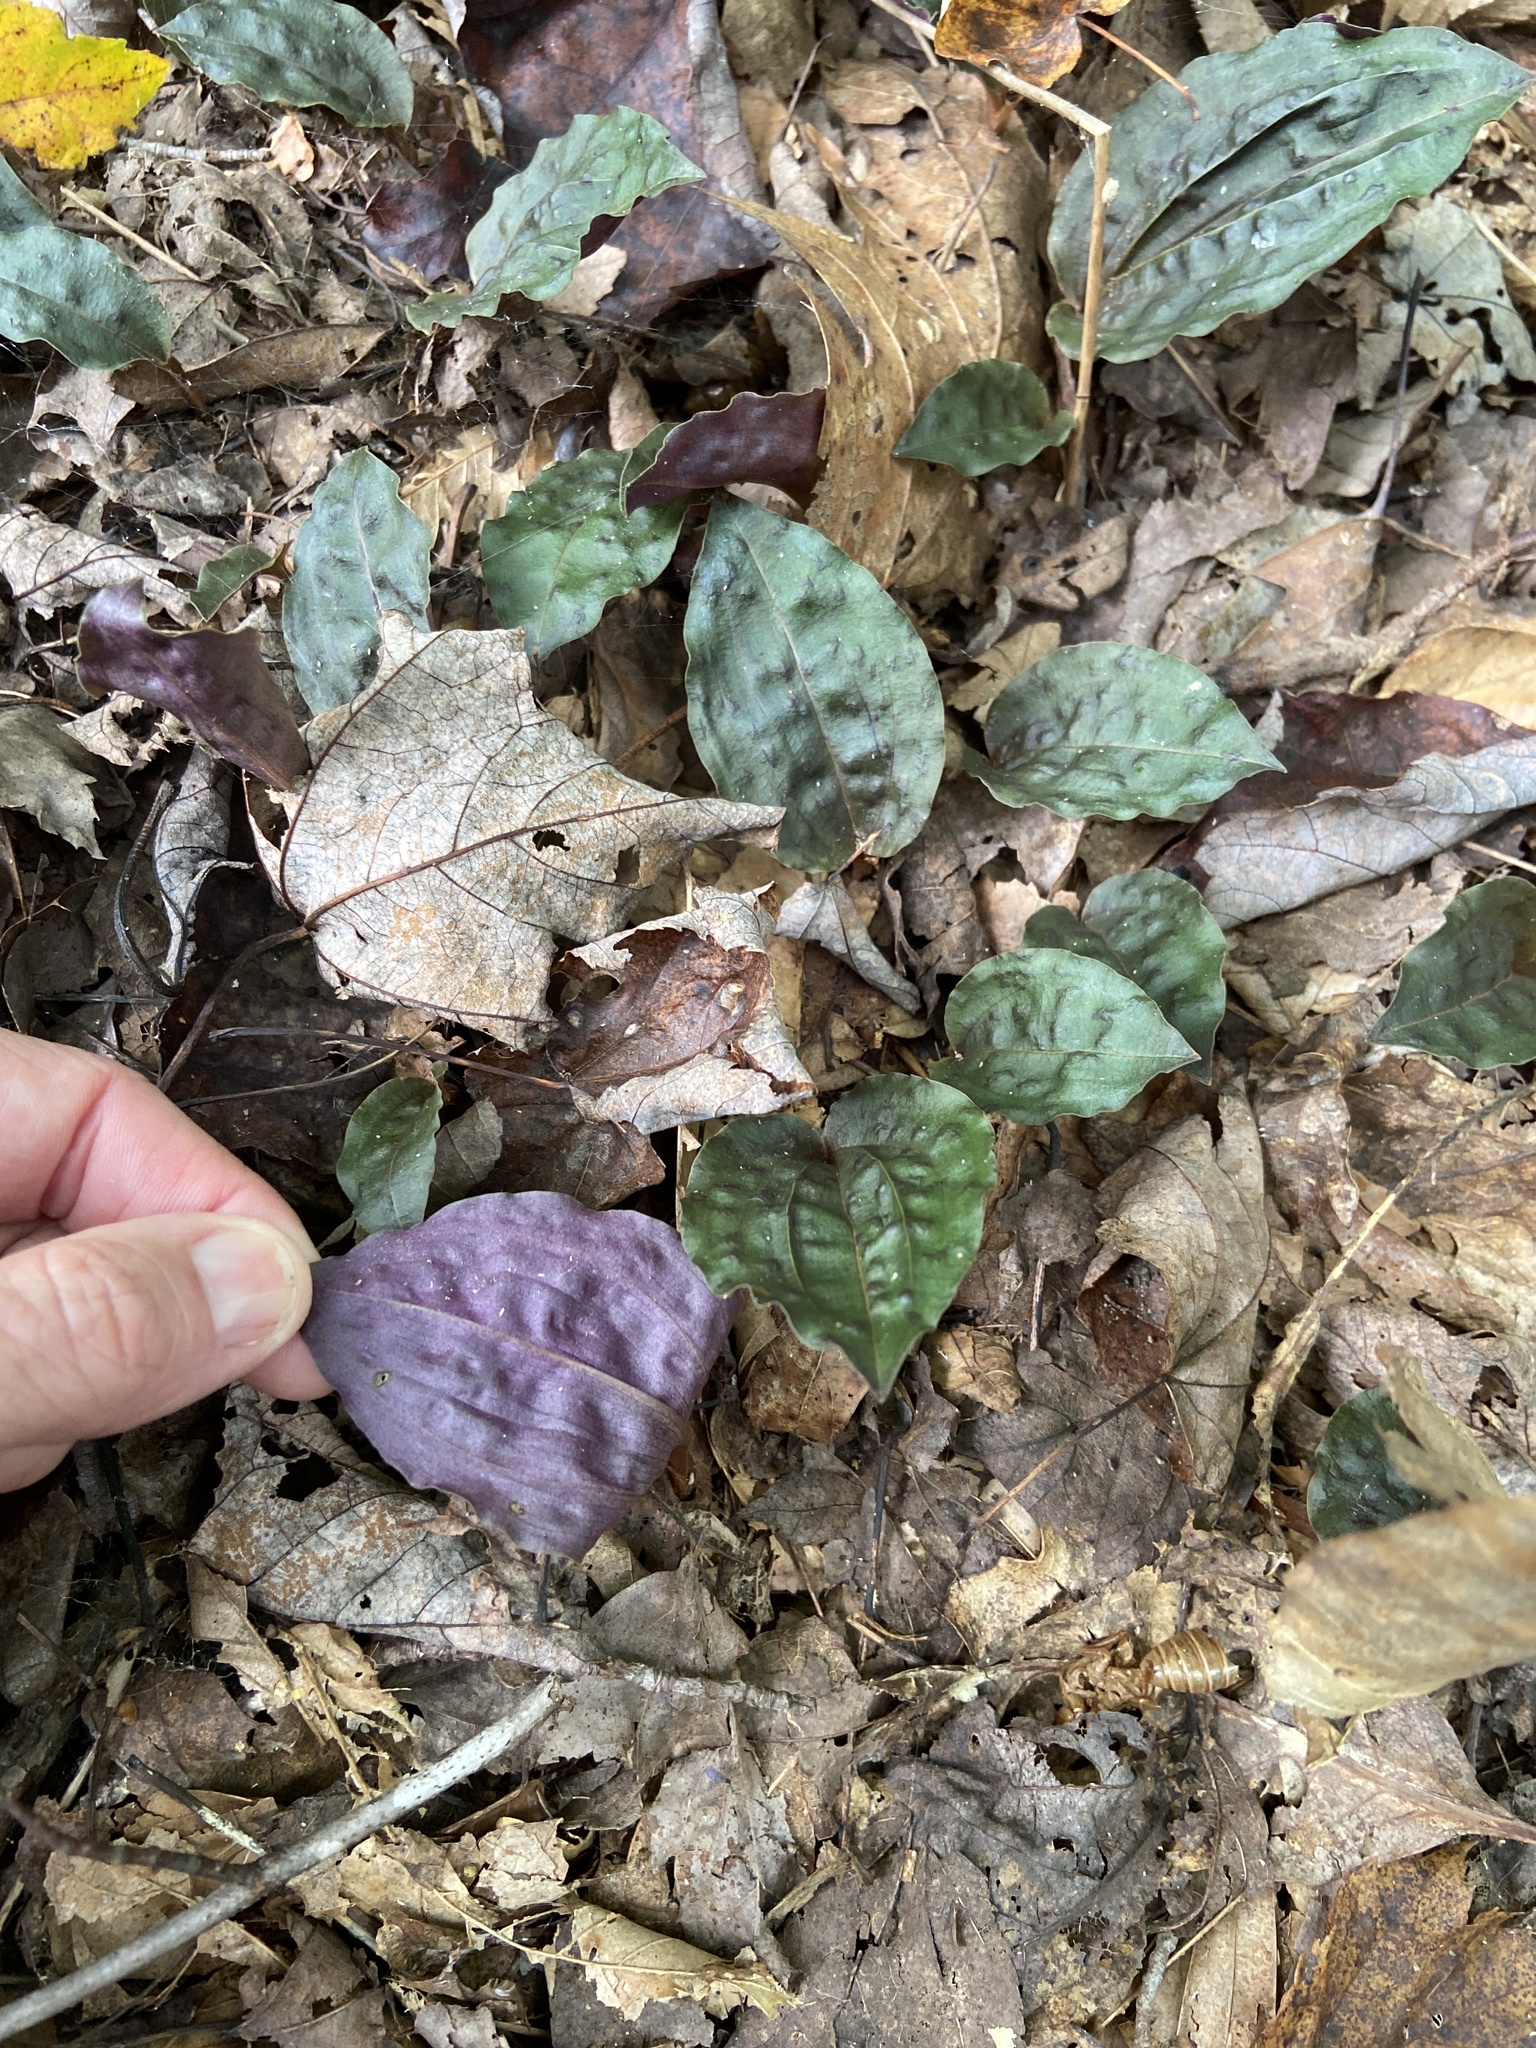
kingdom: Plantae
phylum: Tracheophyta
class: Liliopsida
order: Asparagales
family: Orchidaceae
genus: Tipularia
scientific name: Tipularia discolor
